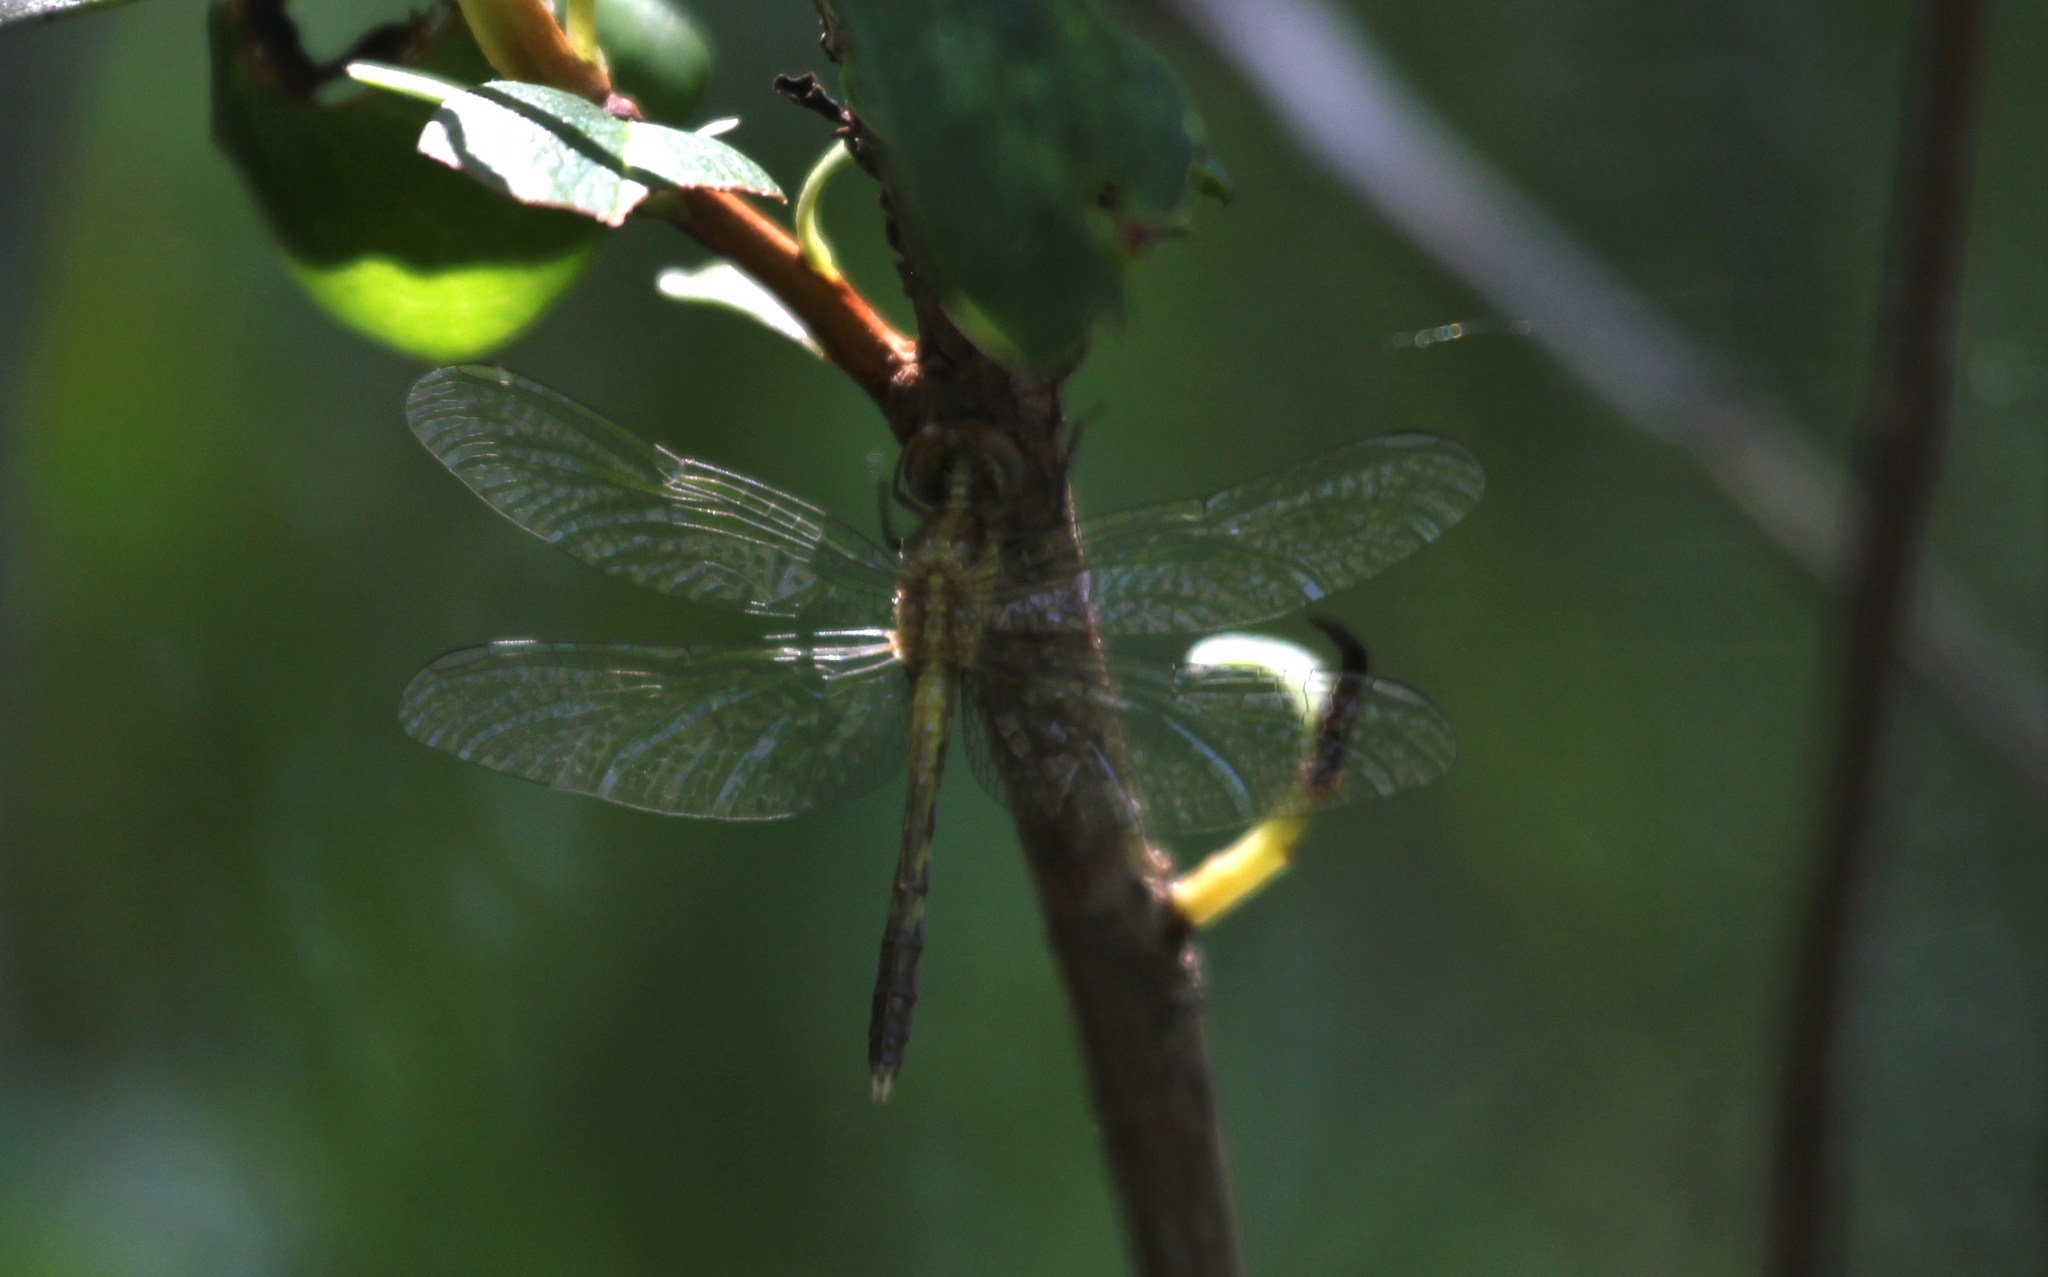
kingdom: Animalia
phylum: Arthropoda
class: Insecta
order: Odonata
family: Libellulidae
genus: Erythrodiplax
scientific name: Erythrodiplax minuscula
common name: Little blue dragonlet
